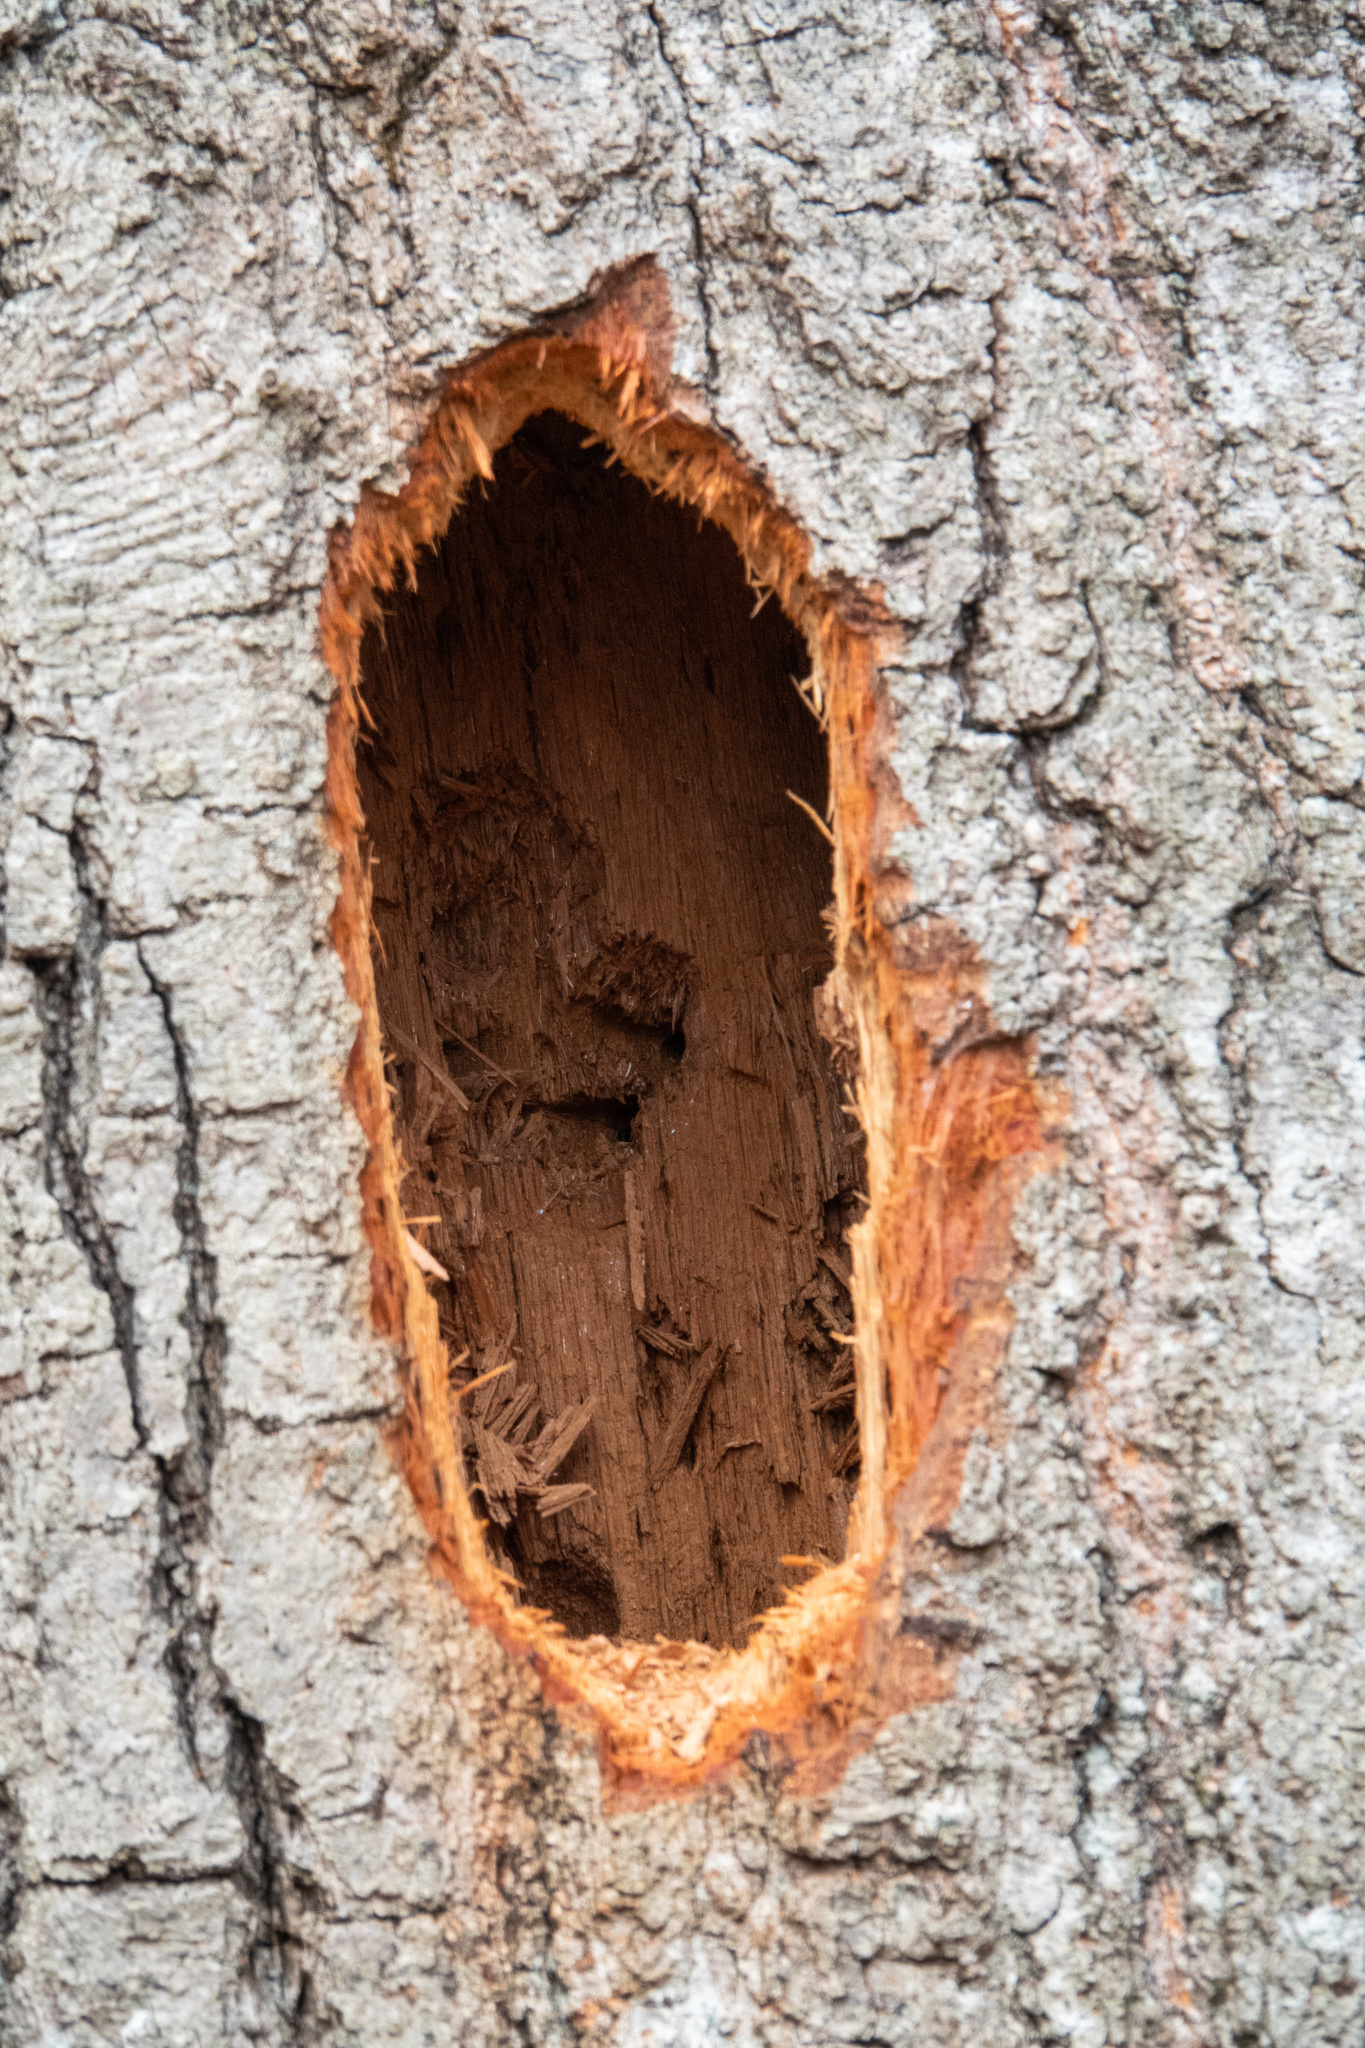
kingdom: Animalia
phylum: Chordata
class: Aves
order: Piciformes
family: Picidae
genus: Dryocopus
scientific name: Dryocopus pileatus
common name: Pileated woodpecker
